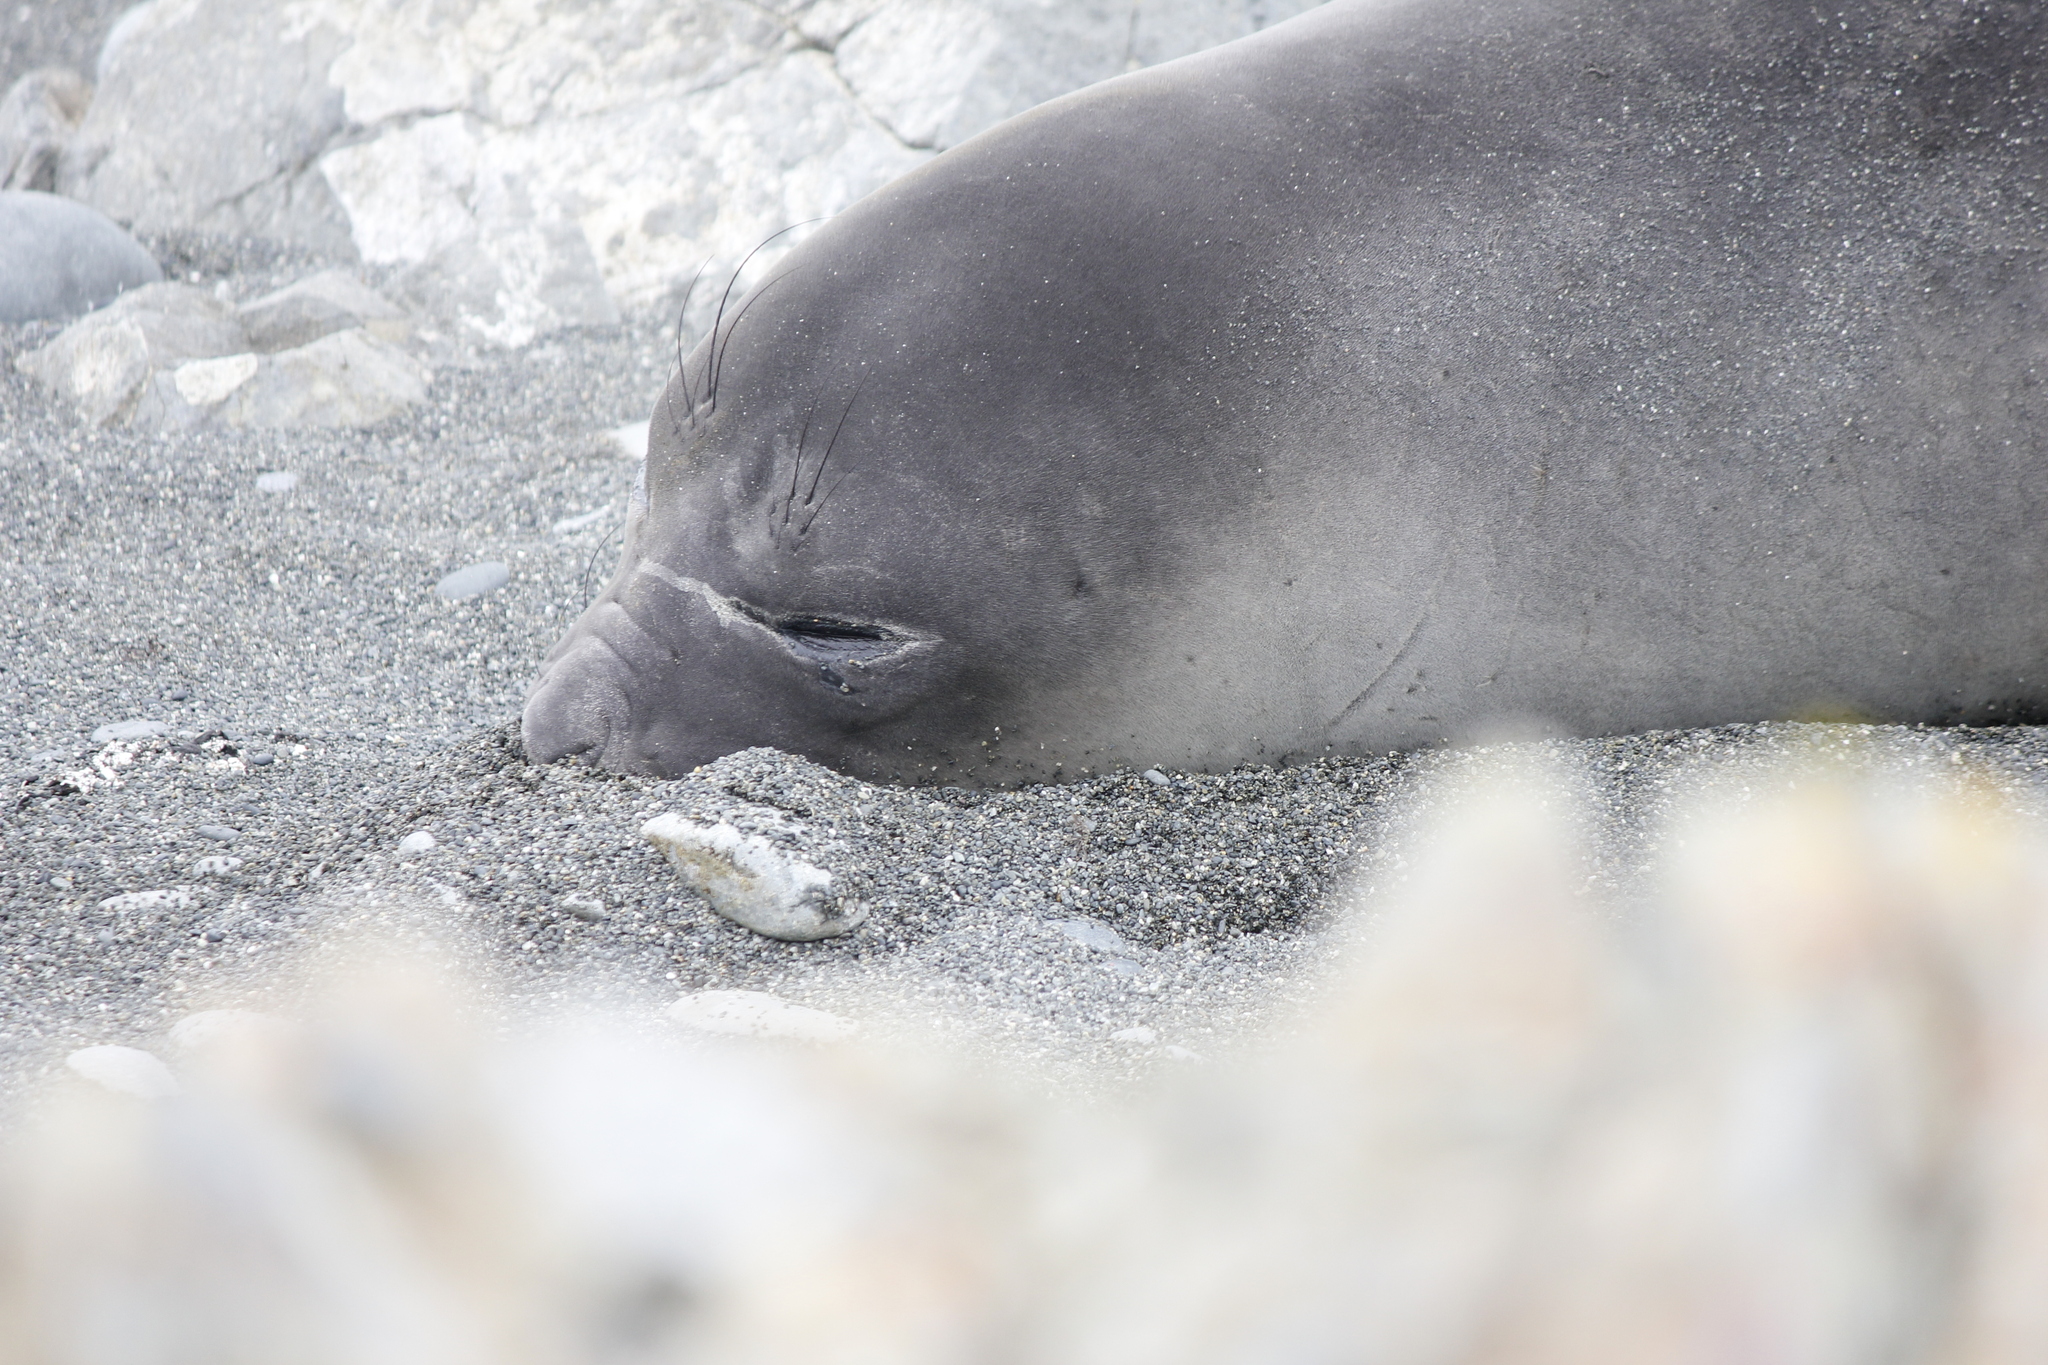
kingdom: Animalia
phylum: Chordata
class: Mammalia
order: Carnivora
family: Phocidae
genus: Mirounga
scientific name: Mirounga leonina
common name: Southern elephant seal
